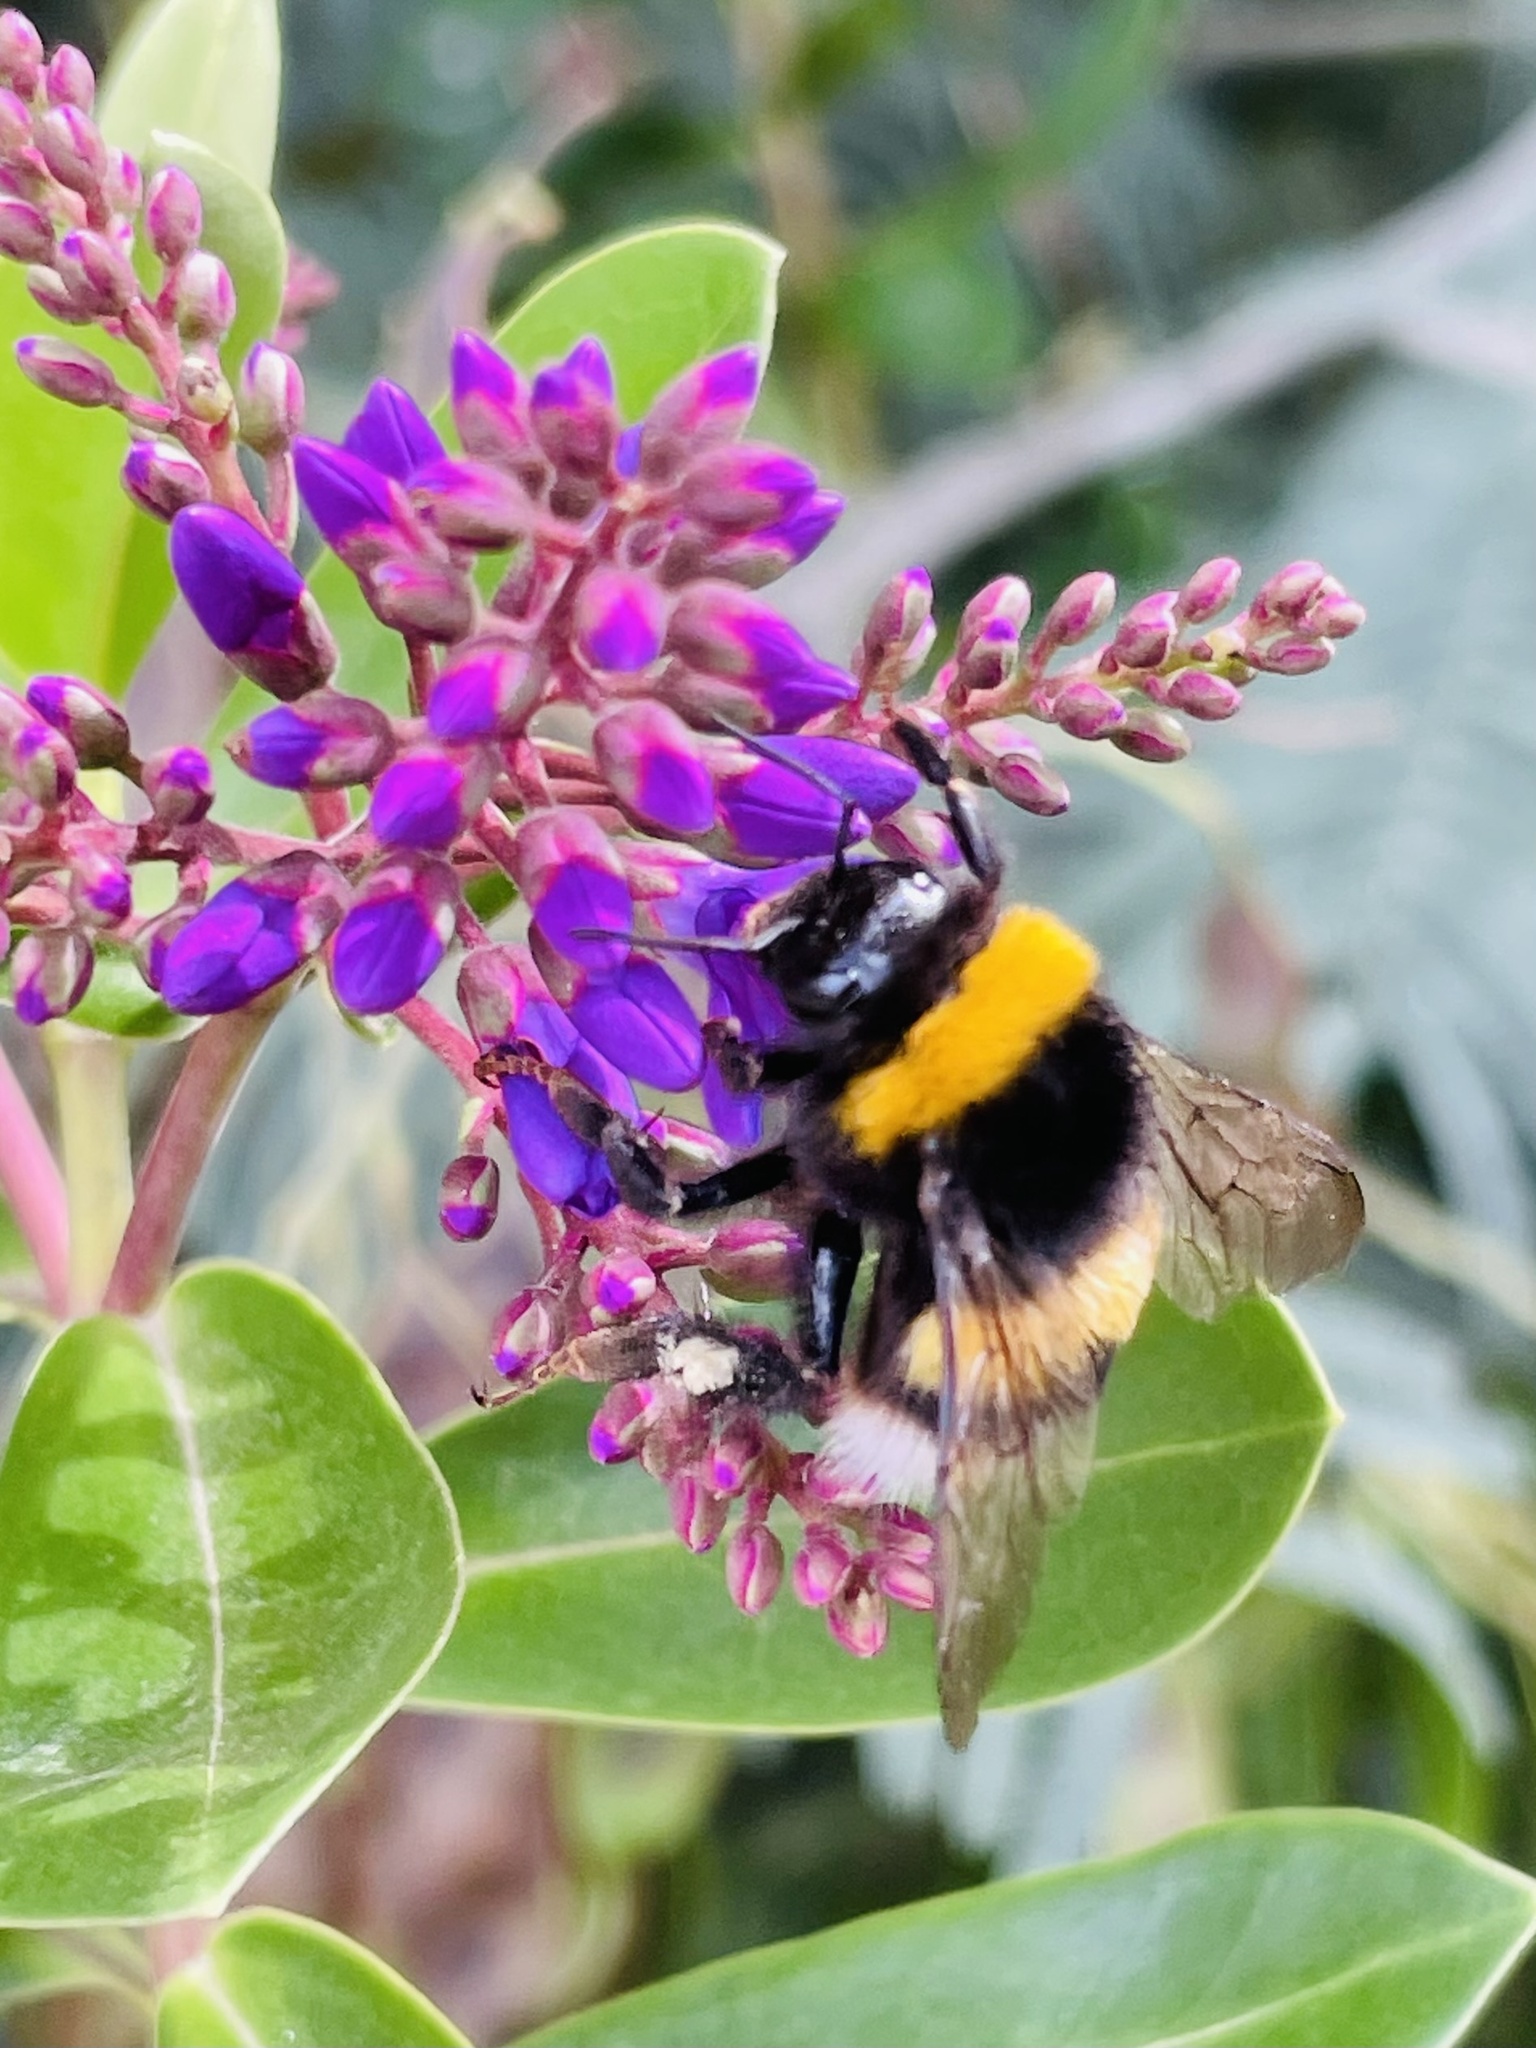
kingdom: Animalia
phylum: Arthropoda
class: Insecta
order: Hymenoptera
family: Apidae
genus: Bombus
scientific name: Bombus terrestris
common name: Buff-tailed bumblebee
